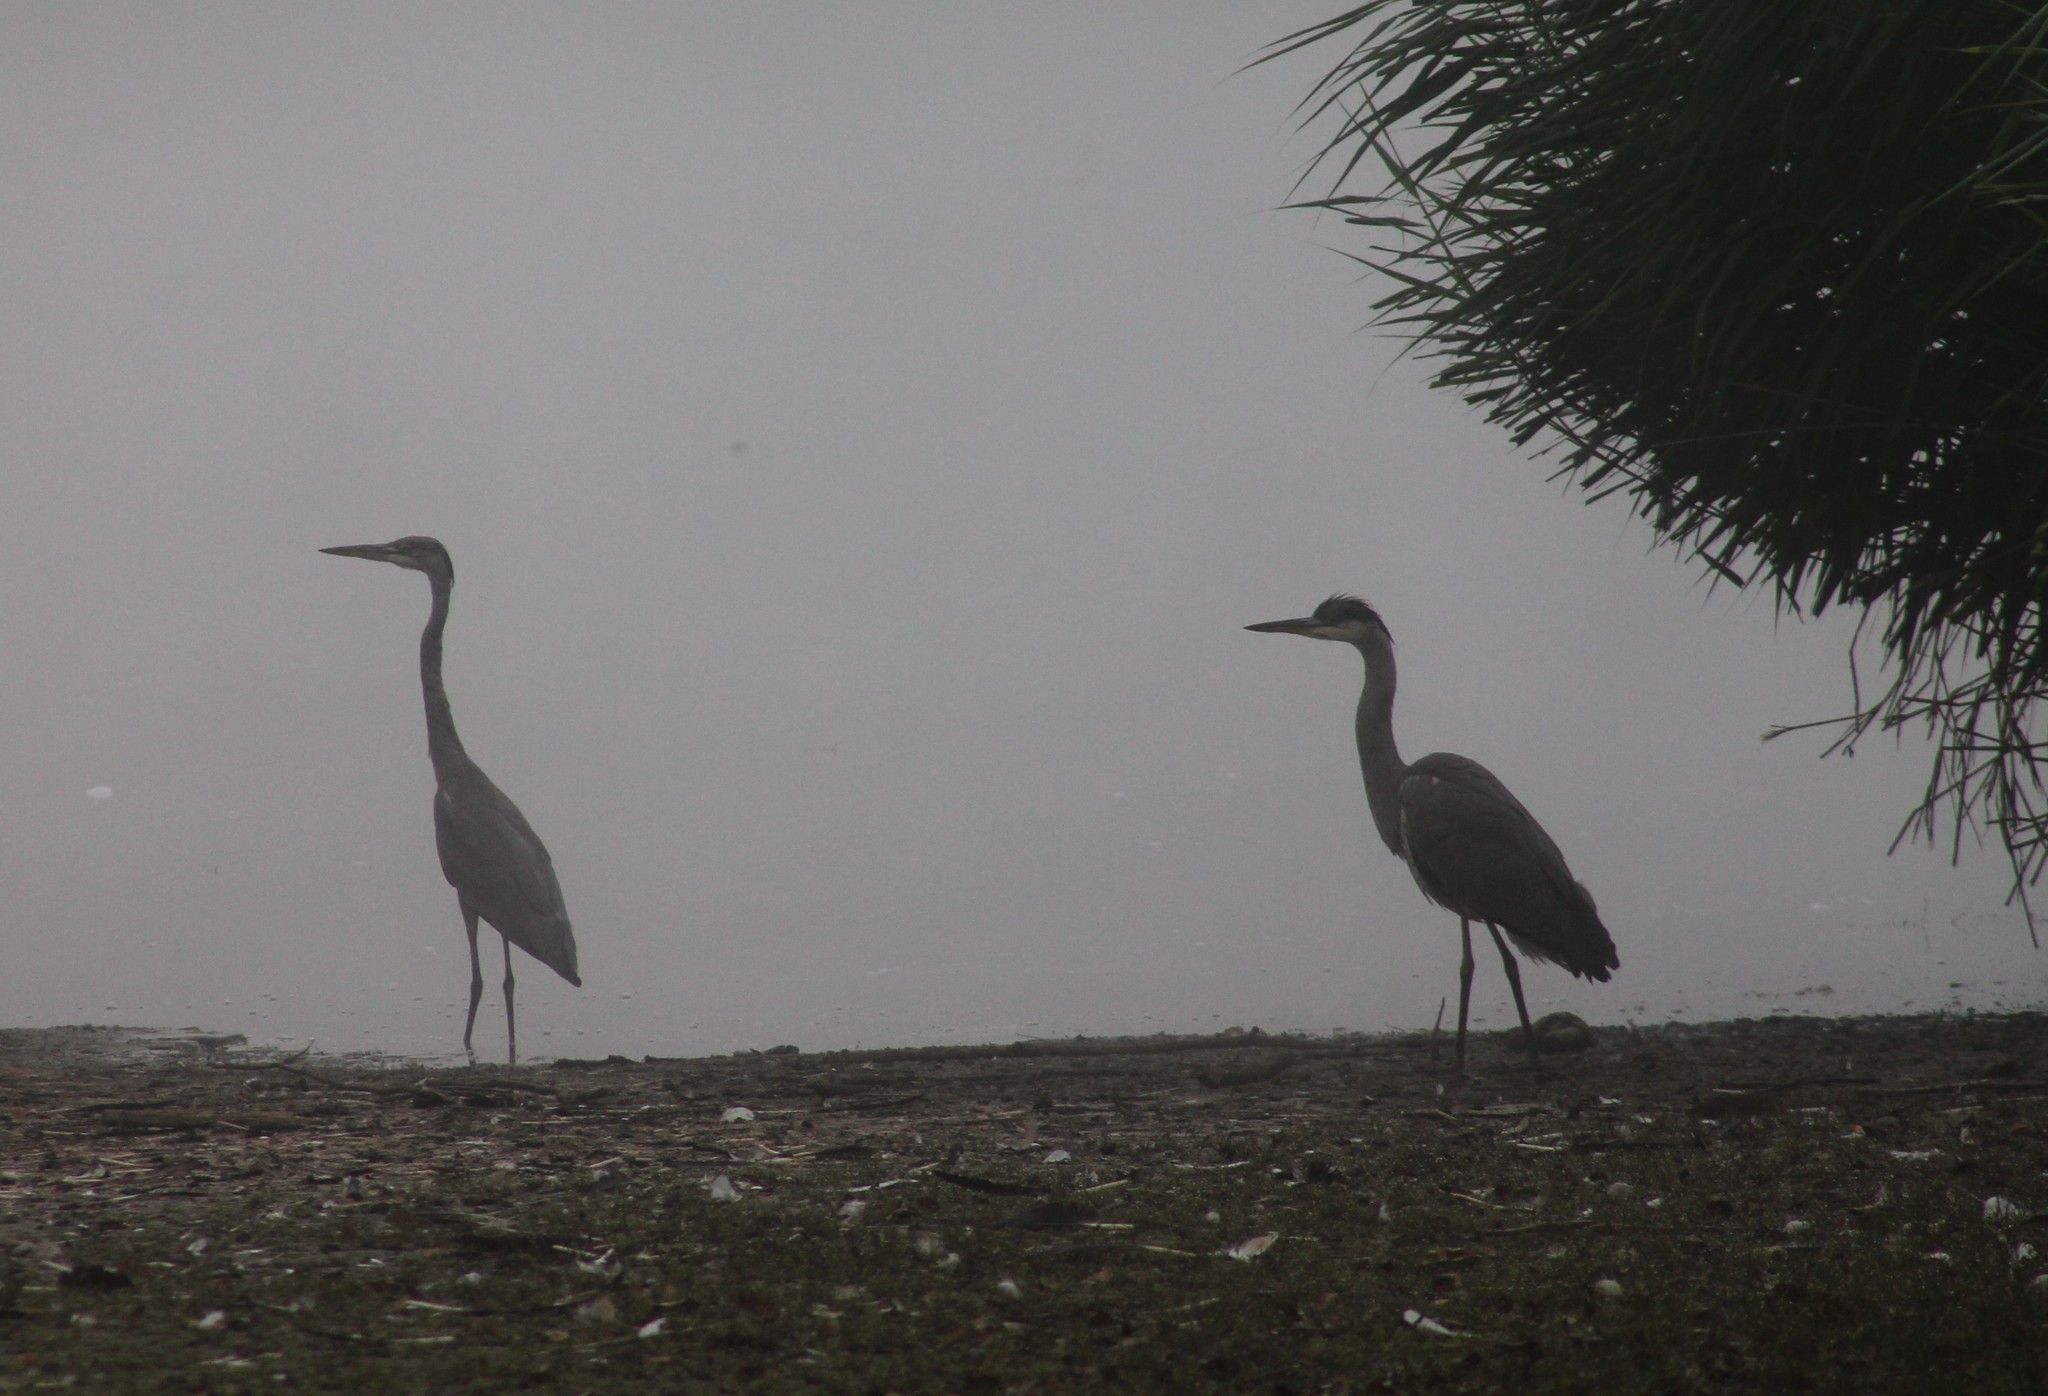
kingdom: Animalia
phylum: Chordata
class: Aves
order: Pelecaniformes
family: Ardeidae
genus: Ardea
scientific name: Ardea cinerea
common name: Grey heron
